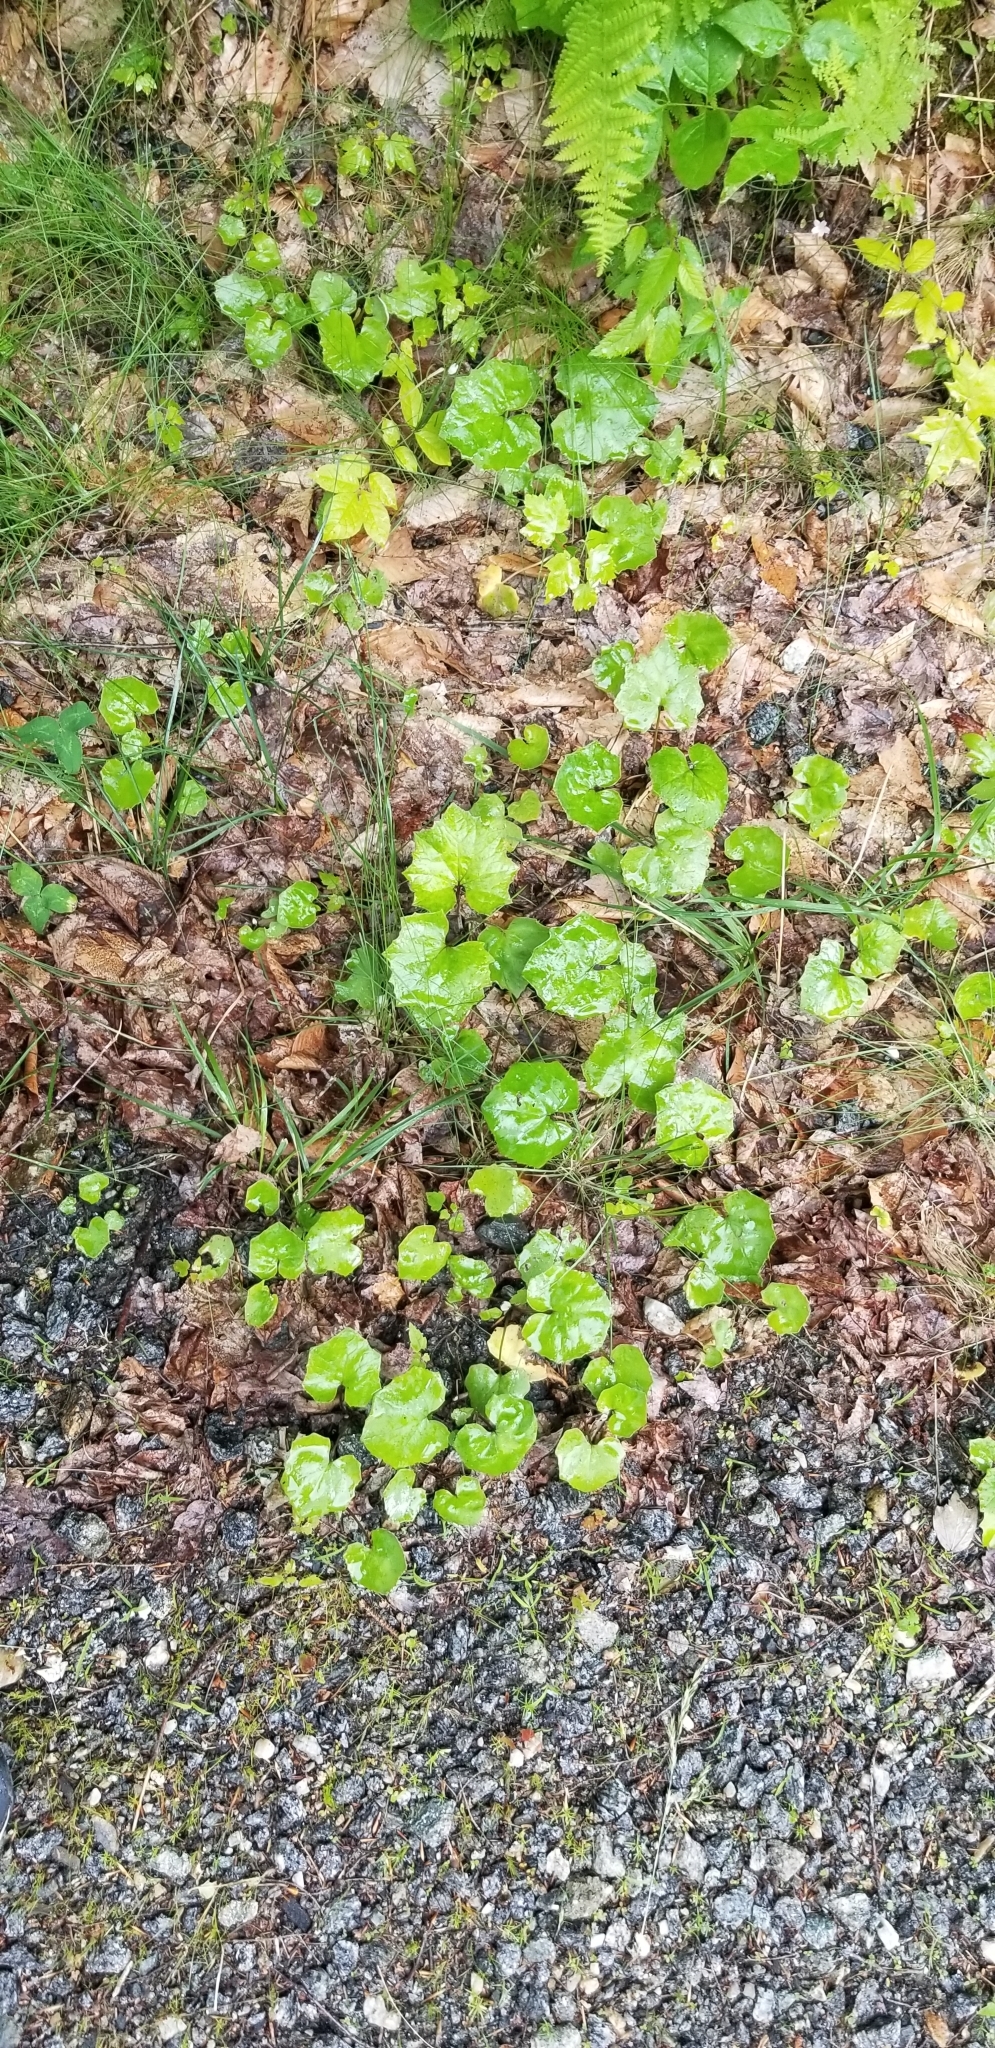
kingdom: Plantae
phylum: Tracheophyta
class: Magnoliopsida
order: Asterales
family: Asteraceae
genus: Tussilago
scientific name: Tussilago farfara
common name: Coltsfoot
